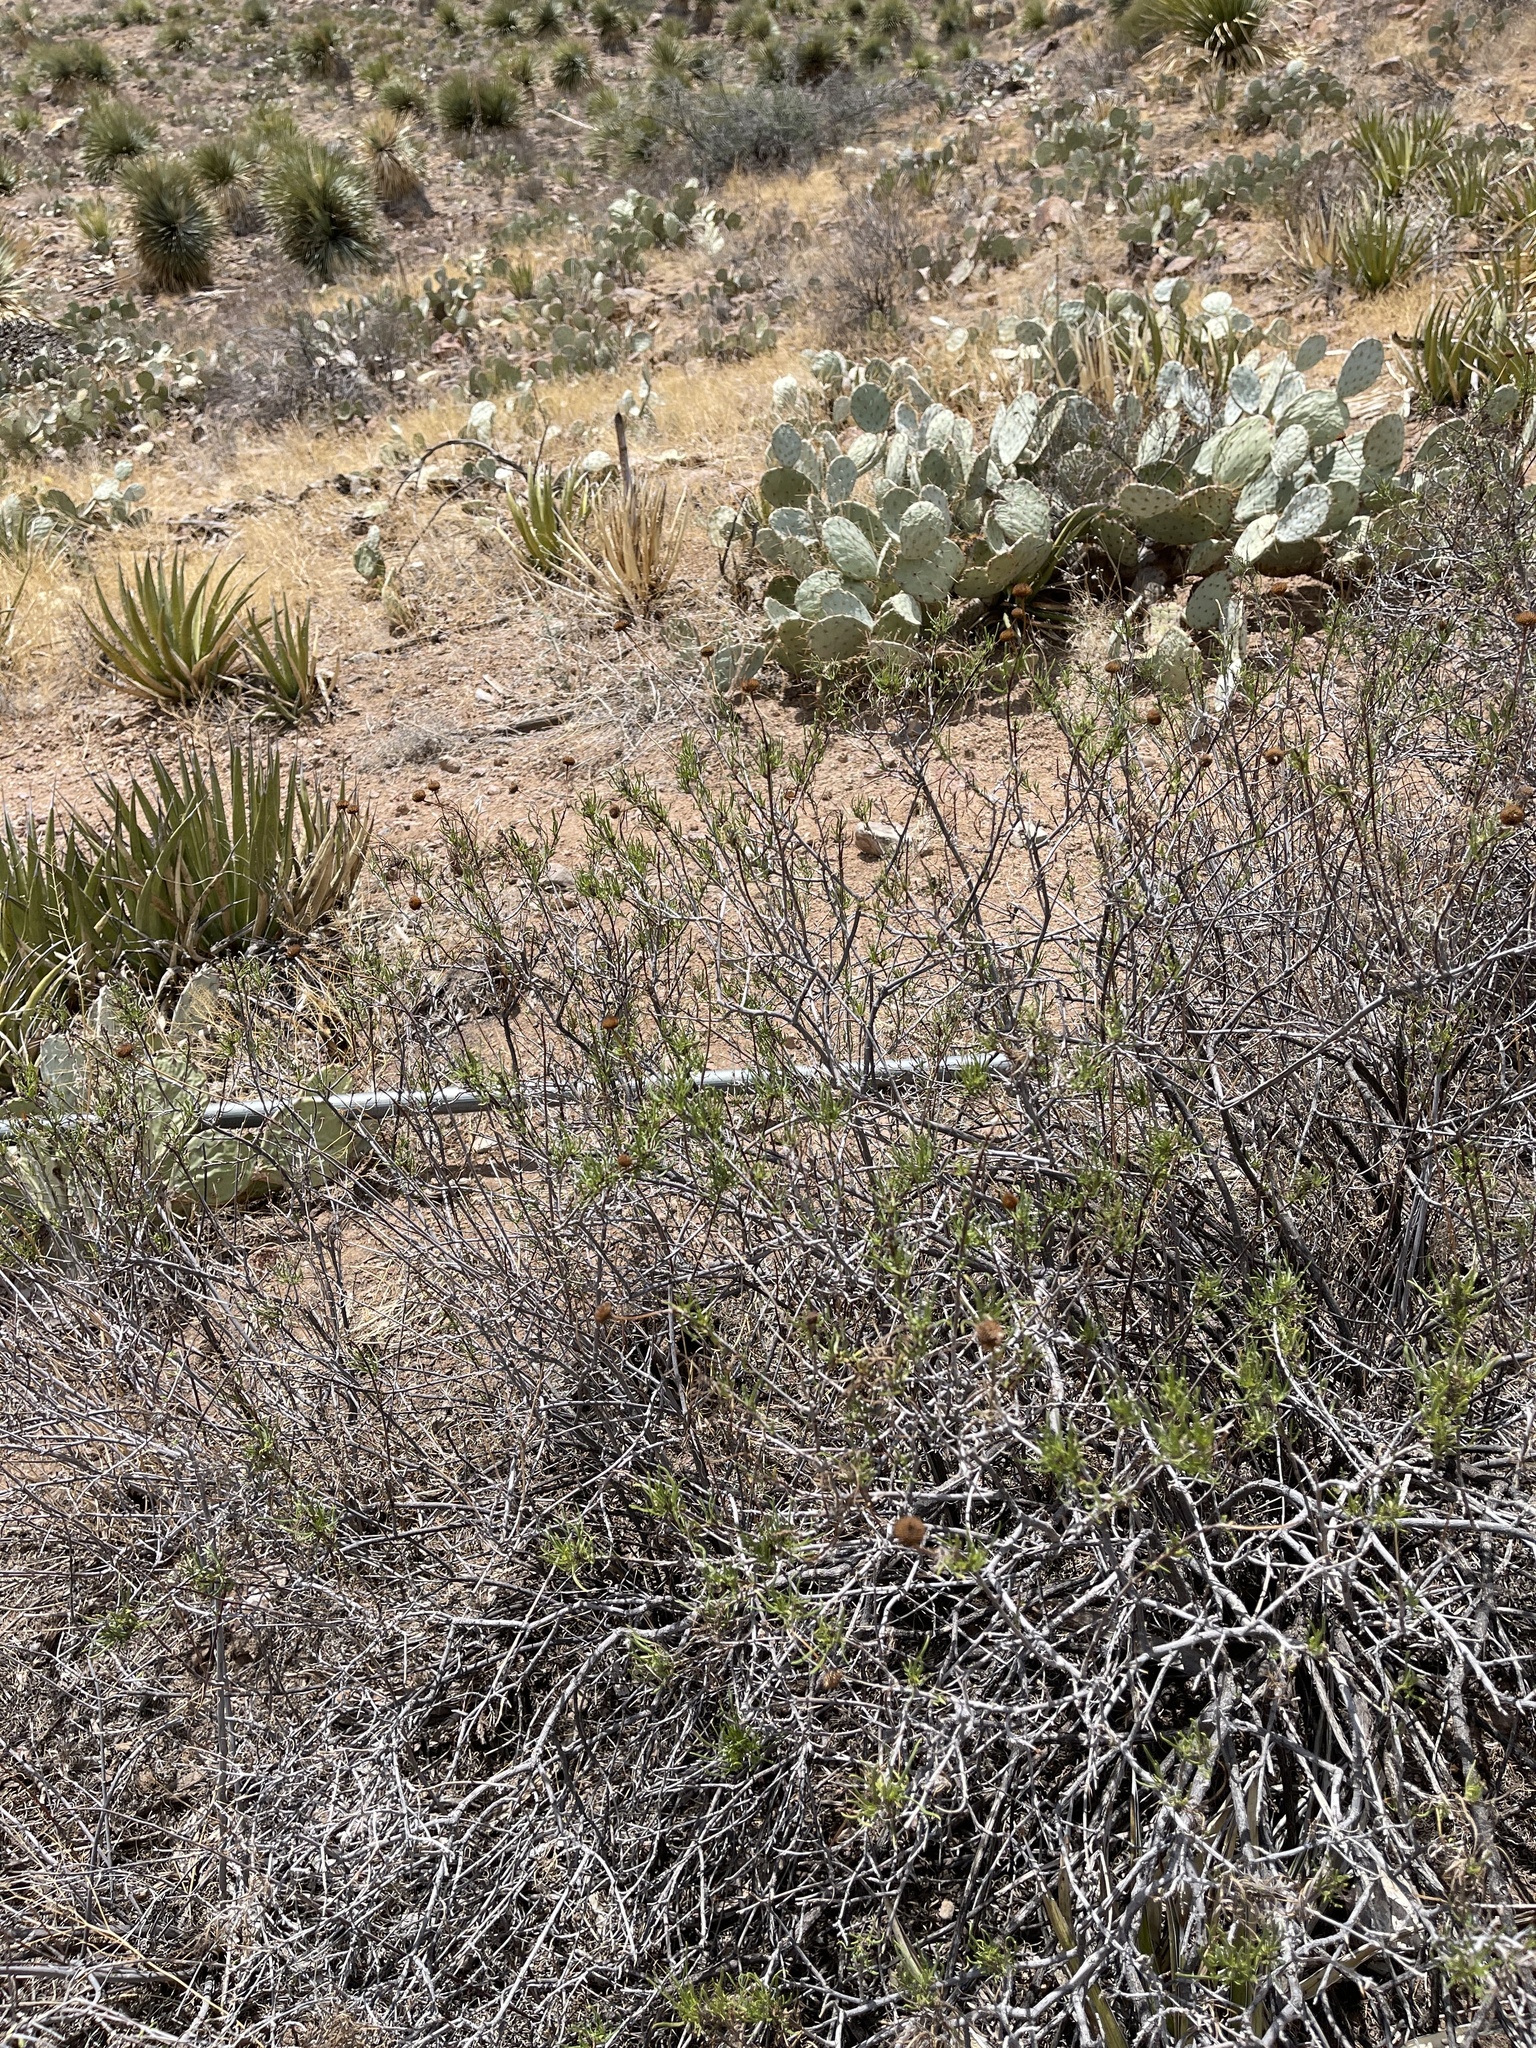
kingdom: Plantae
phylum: Tracheophyta
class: Magnoliopsida
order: Asterales
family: Asteraceae
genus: Sidneya
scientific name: Sidneya tenuifolia
